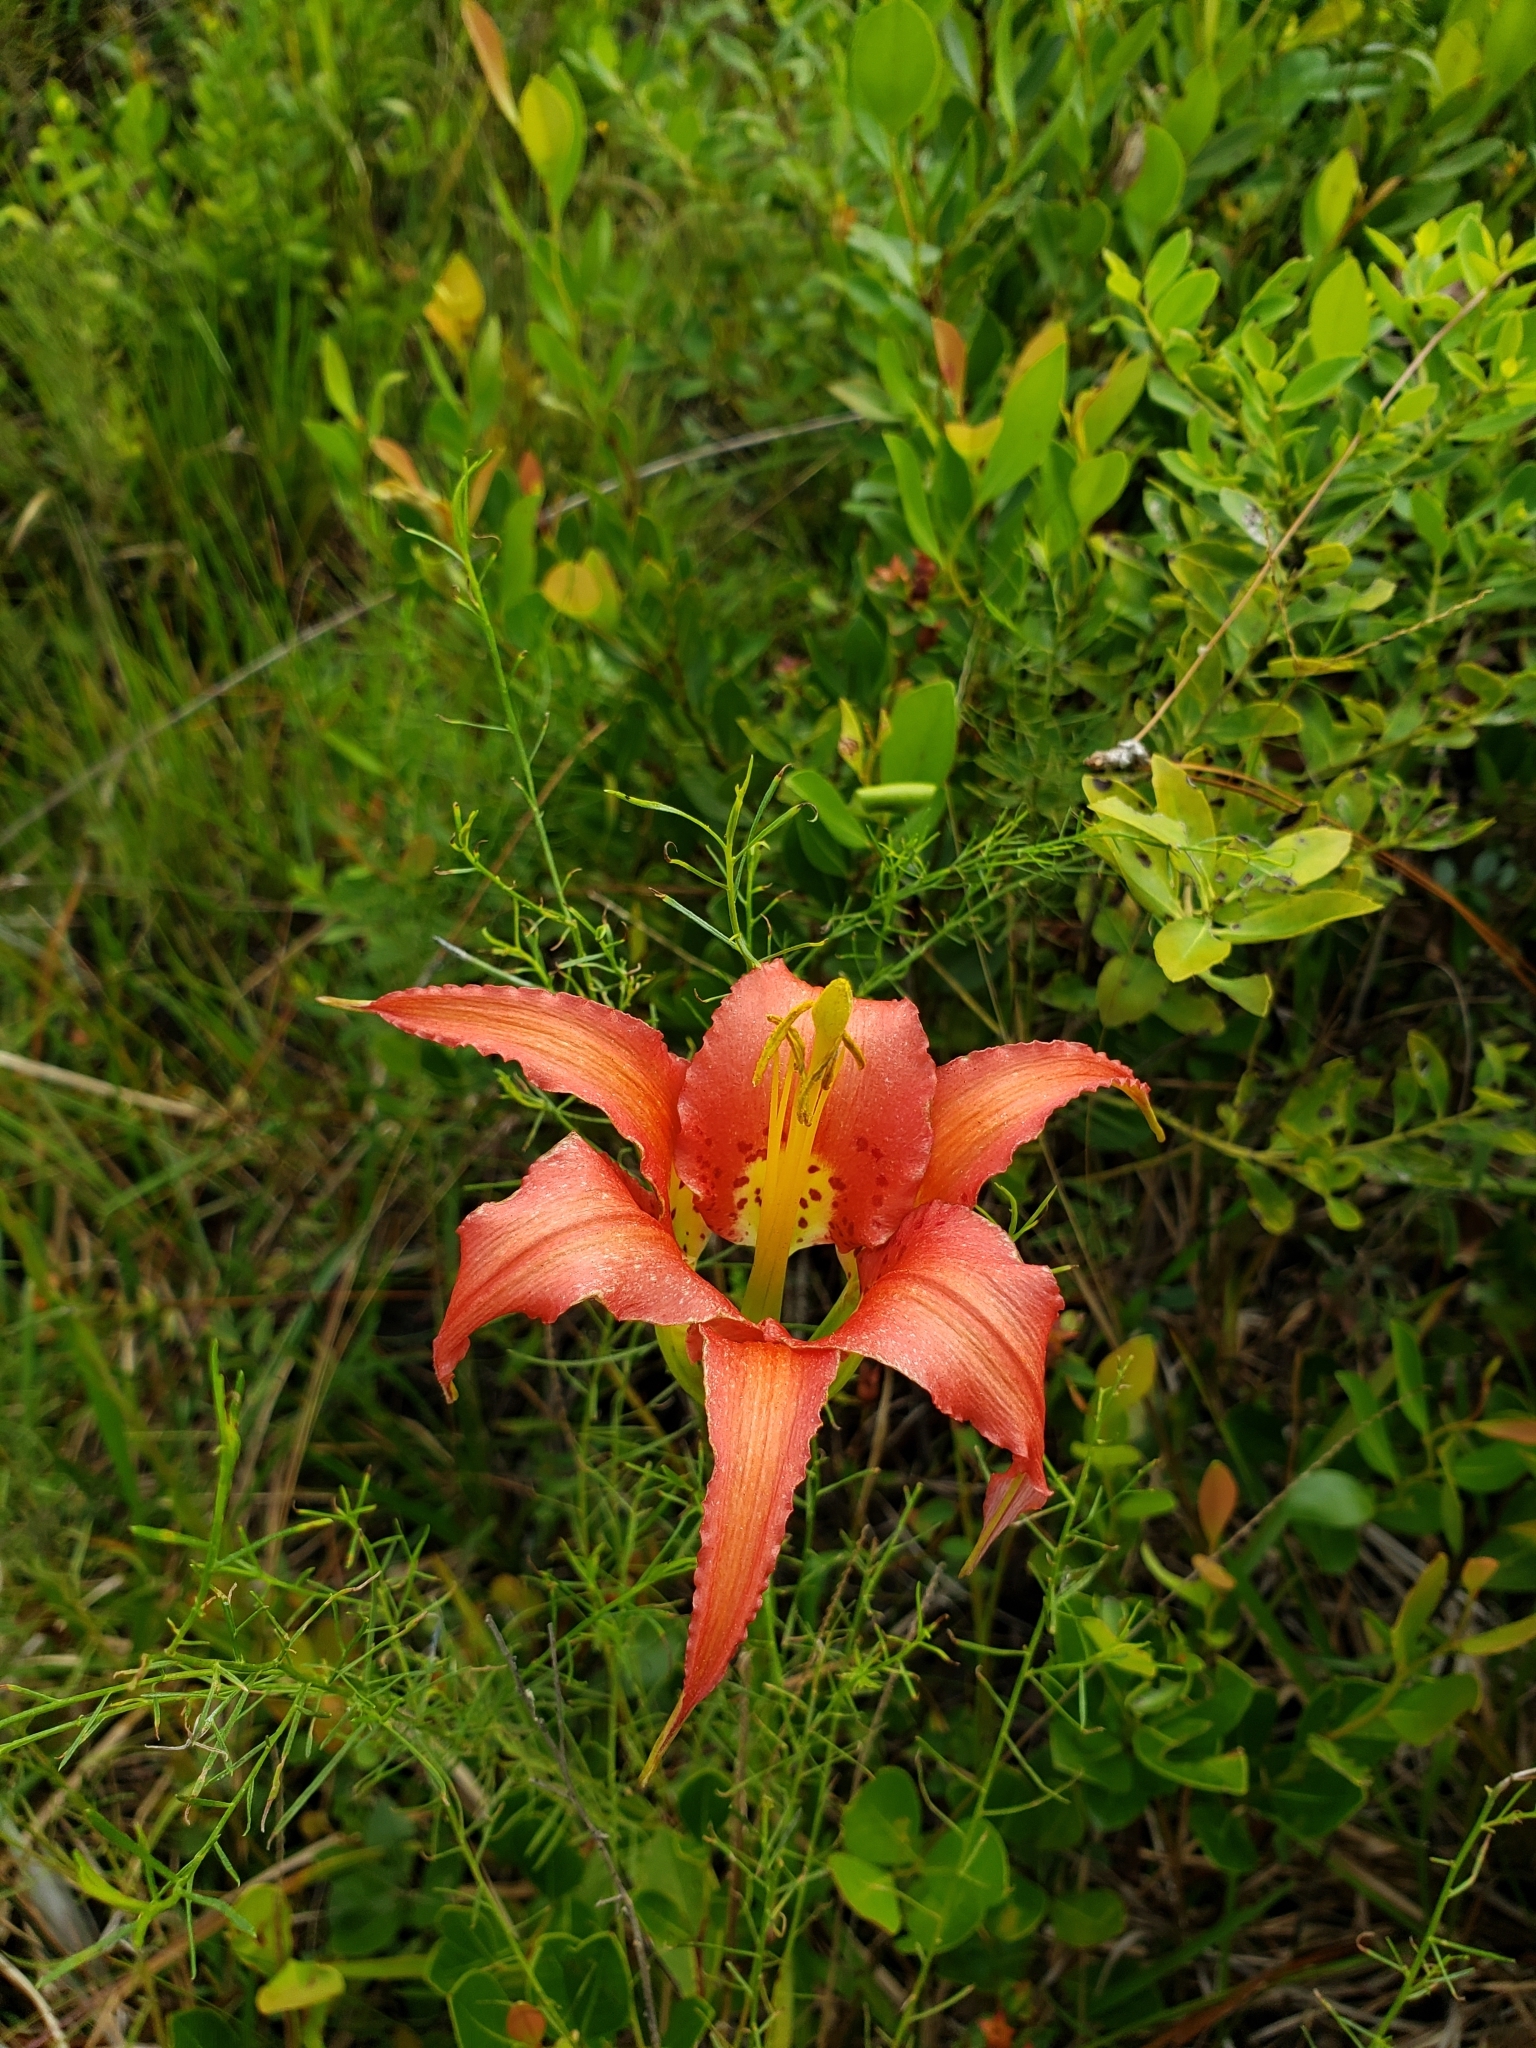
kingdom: Plantae
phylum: Tracheophyta
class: Liliopsida
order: Liliales
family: Liliaceae
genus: Lilium
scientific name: Lilium catesbaei
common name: Catesby's lily
